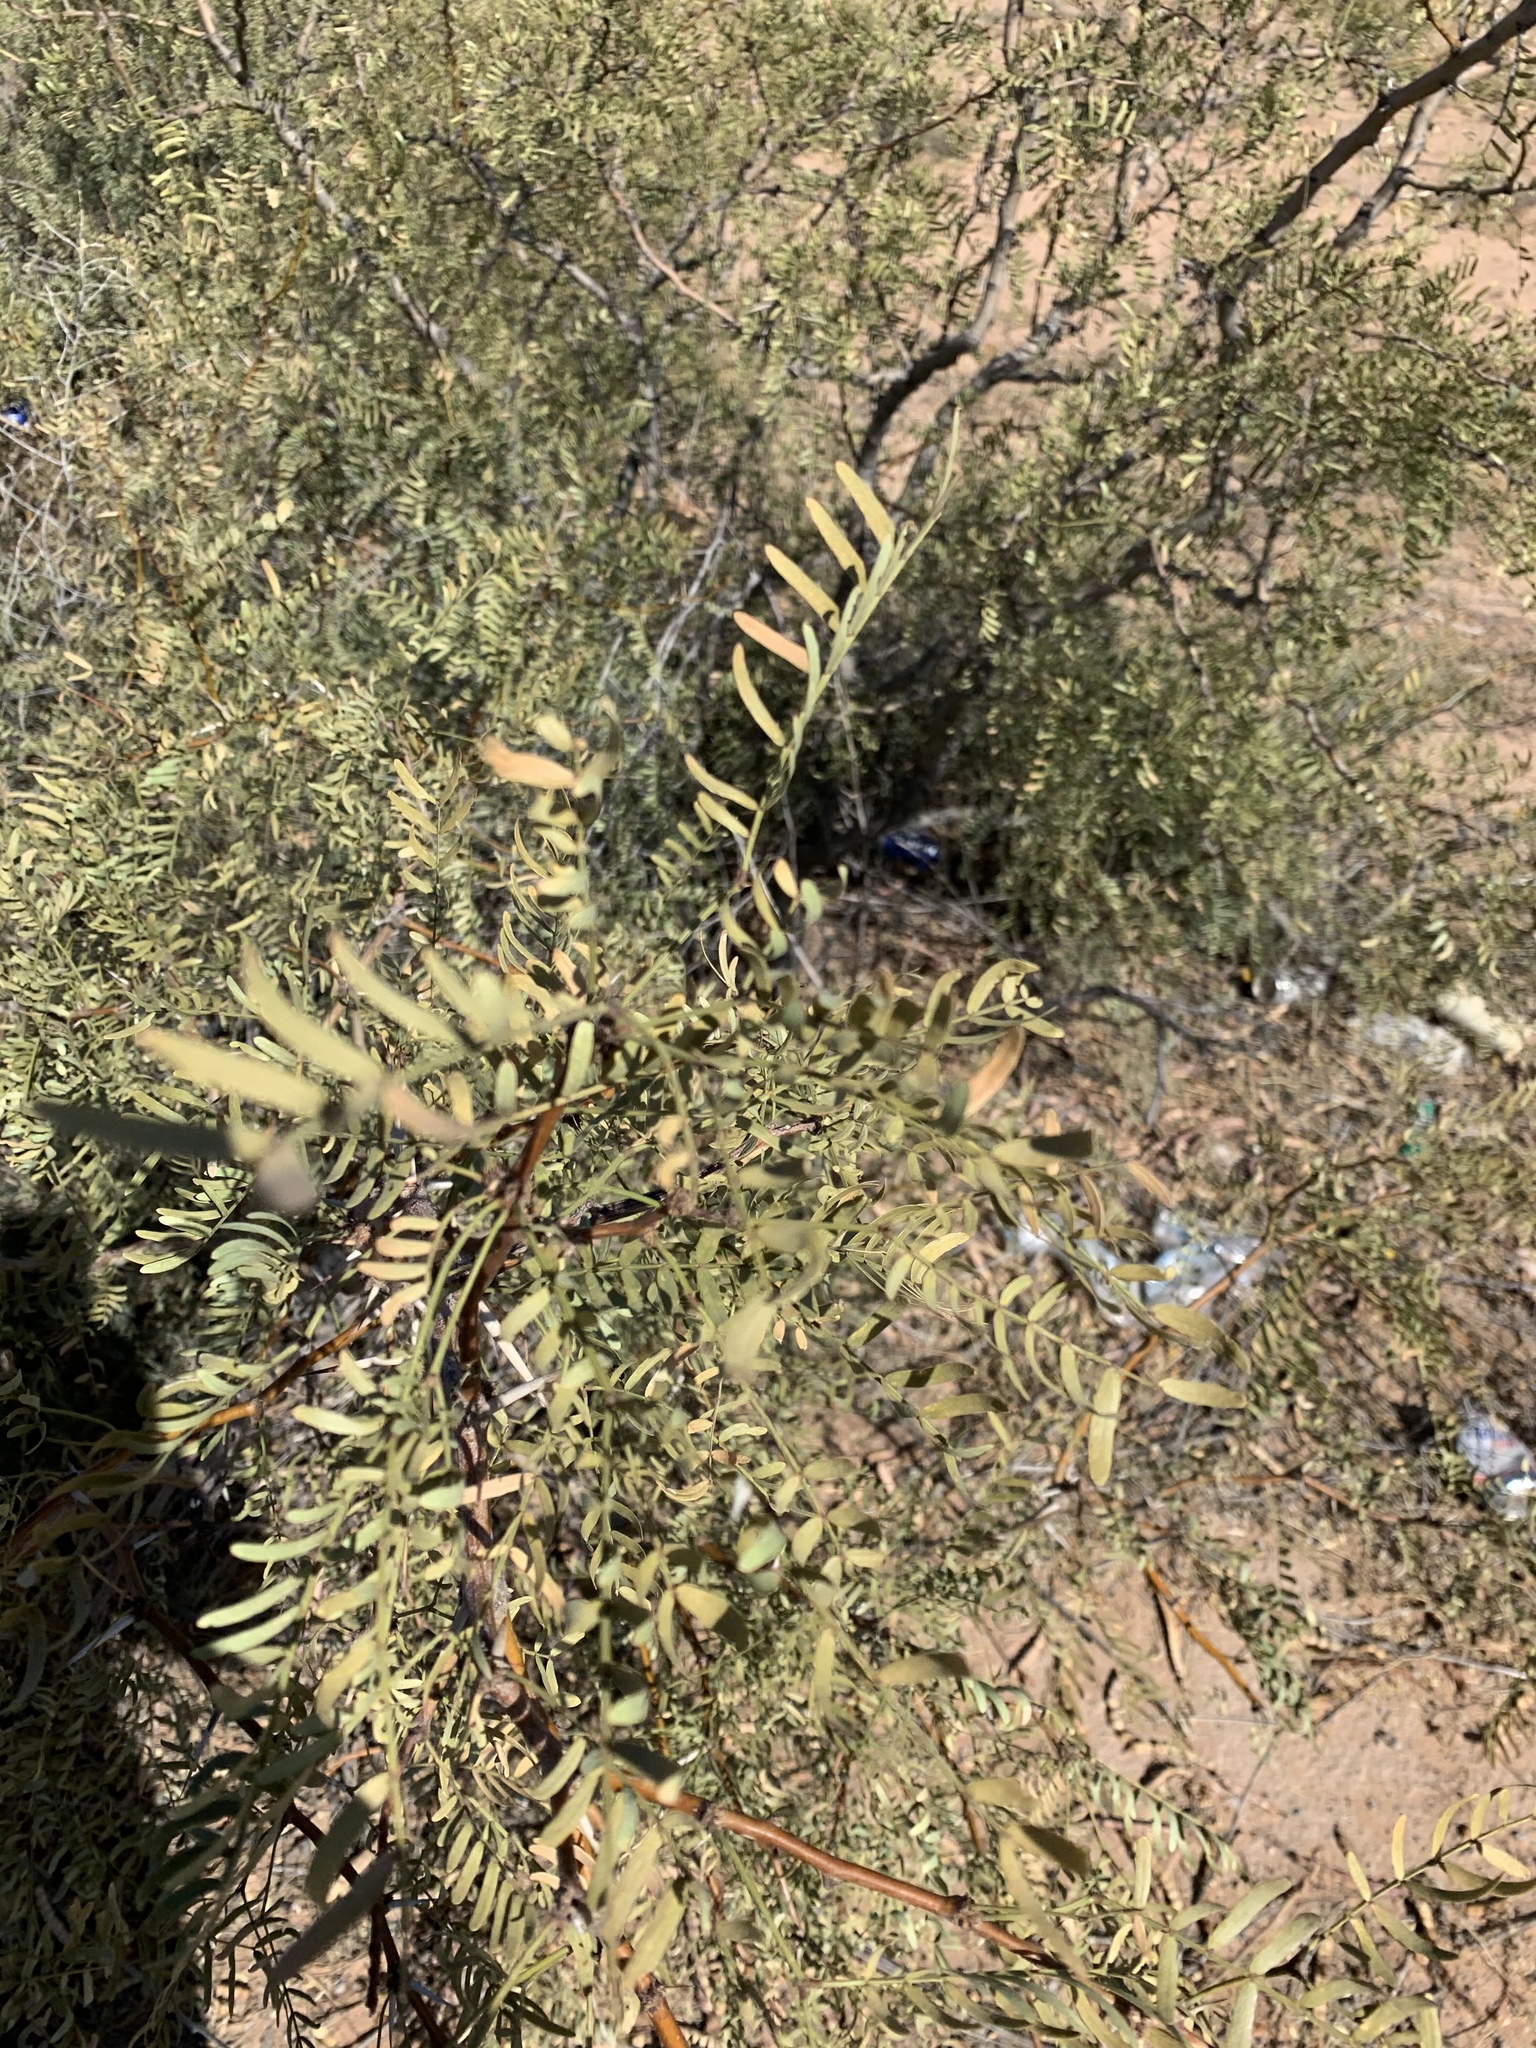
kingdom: Plantae
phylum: Tracheophyta
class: Magnoliopsida
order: Fabales
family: Fabaceae
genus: Prosopis
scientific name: Prosopis glandulosa
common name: Honey mesquite
